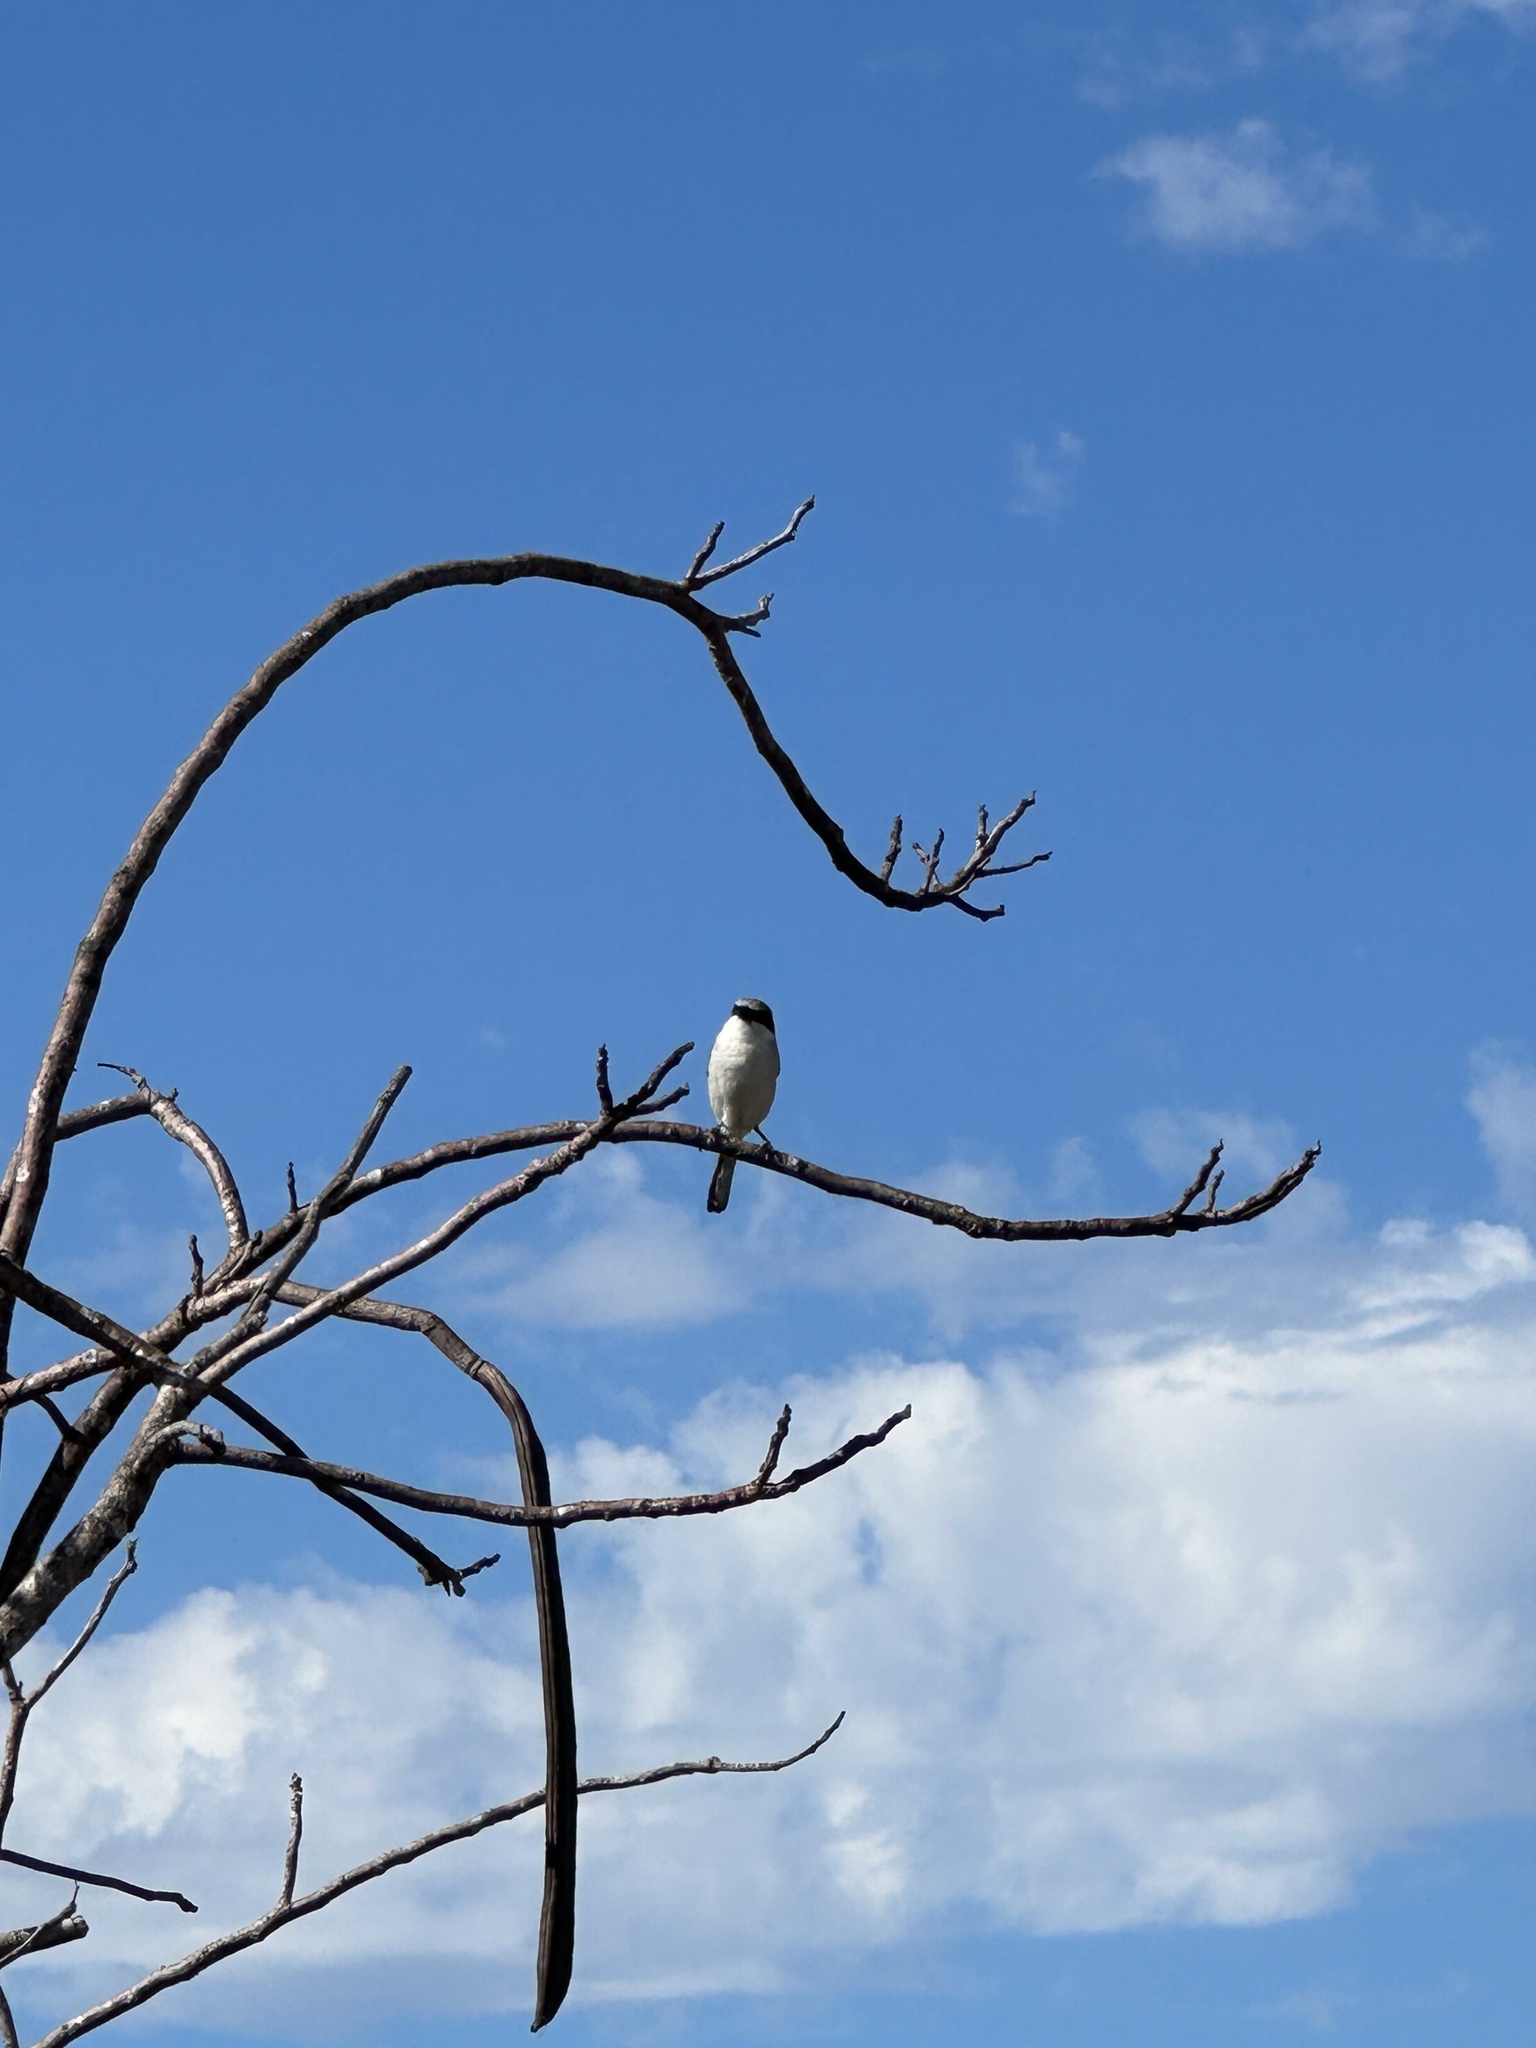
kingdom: Animalia
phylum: Chordata
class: Aves
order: Passeriformes
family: Mimidae
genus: Mimus
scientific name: Mimus polyglottos
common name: Northern mockingbird
